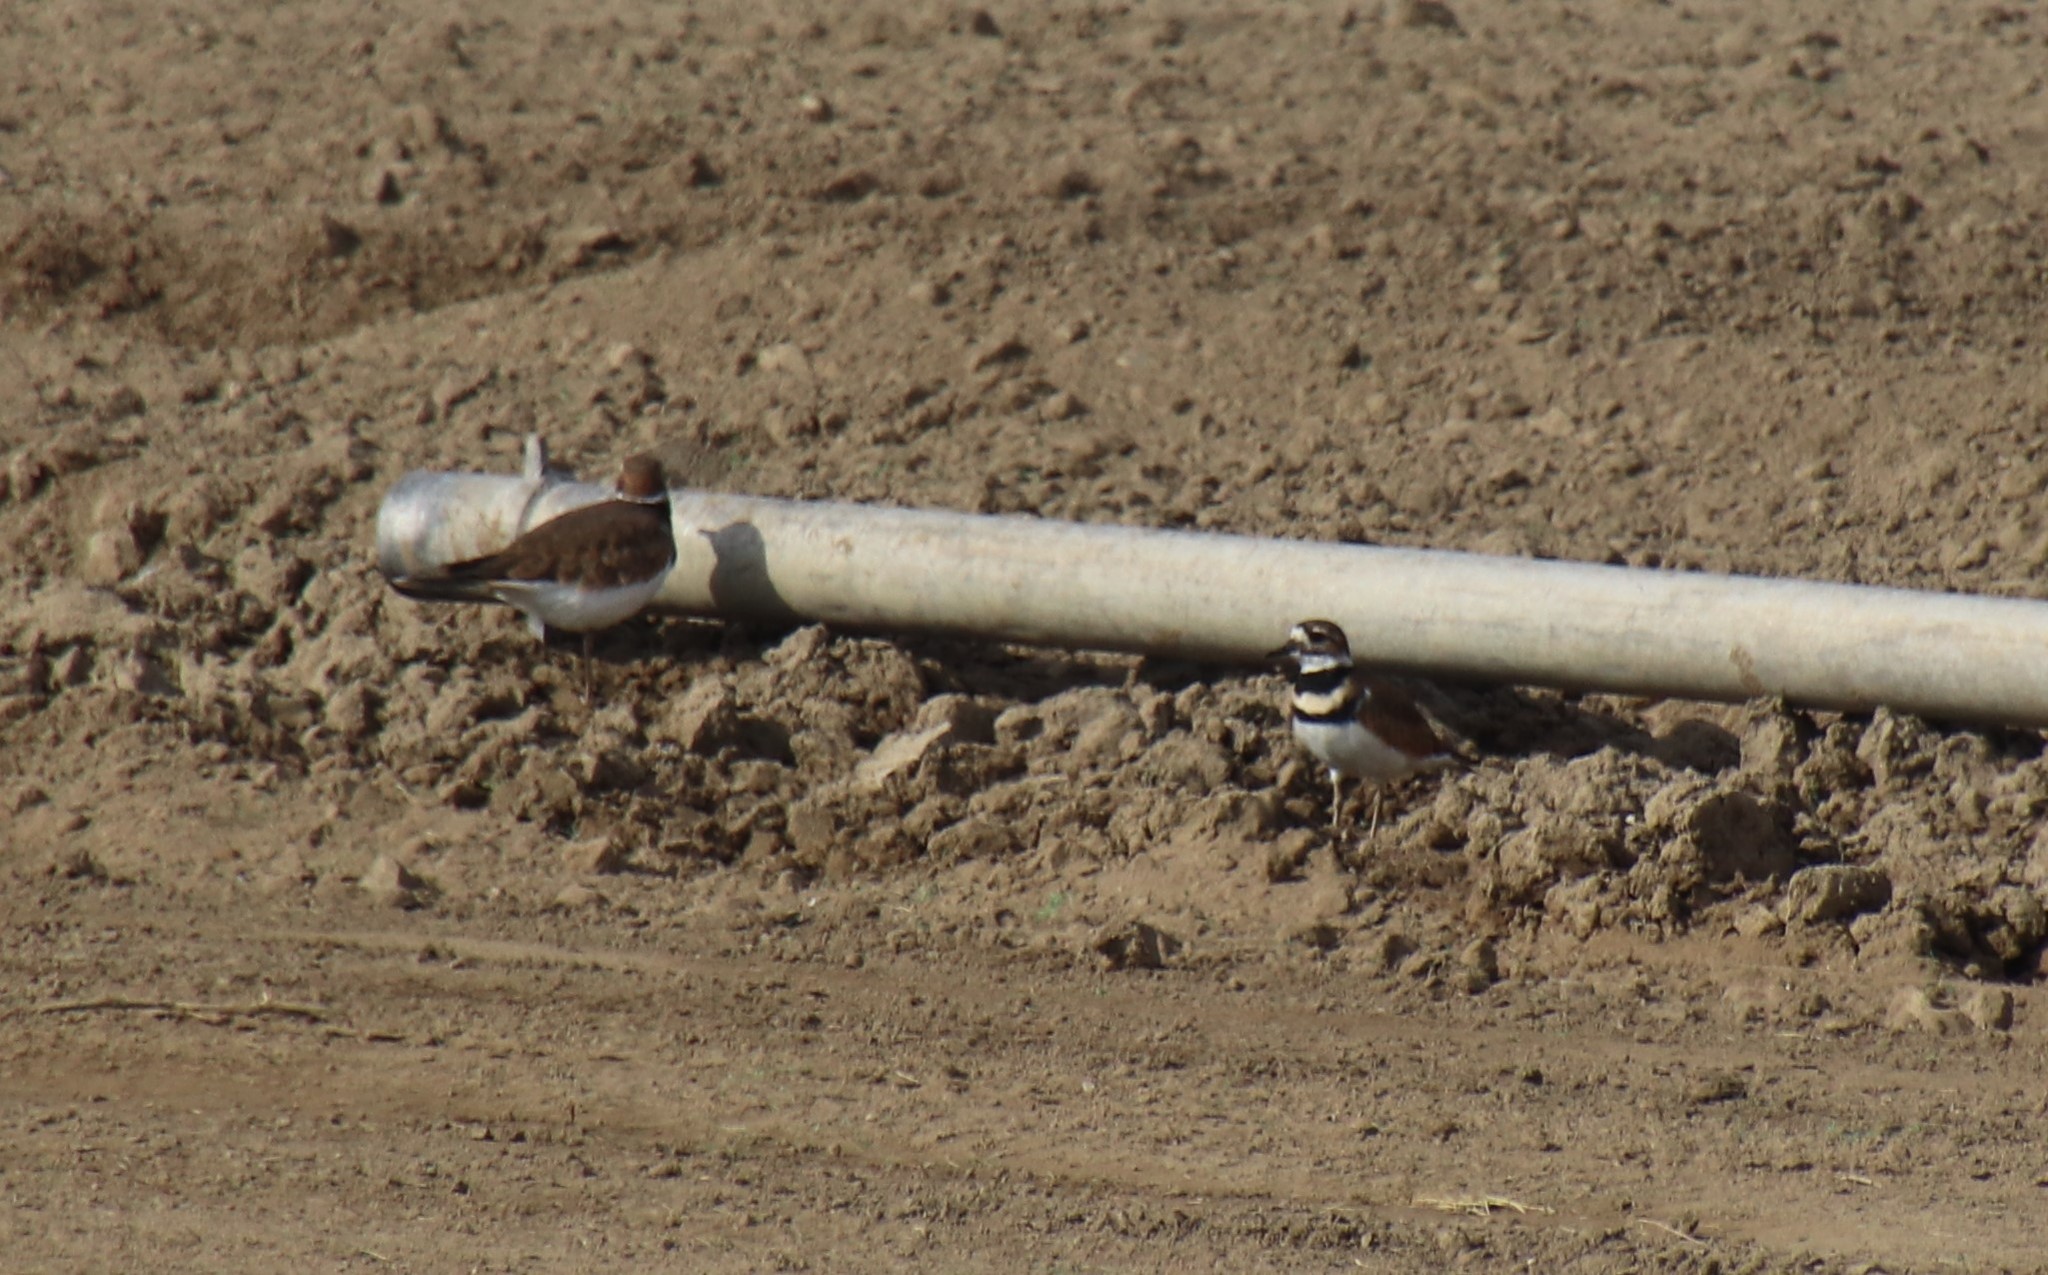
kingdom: Animalia
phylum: Chordata
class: Aves
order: Charadriiformes
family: Charadriidae
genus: Charadrius
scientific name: Charadrius vociferus
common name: Killdeer
